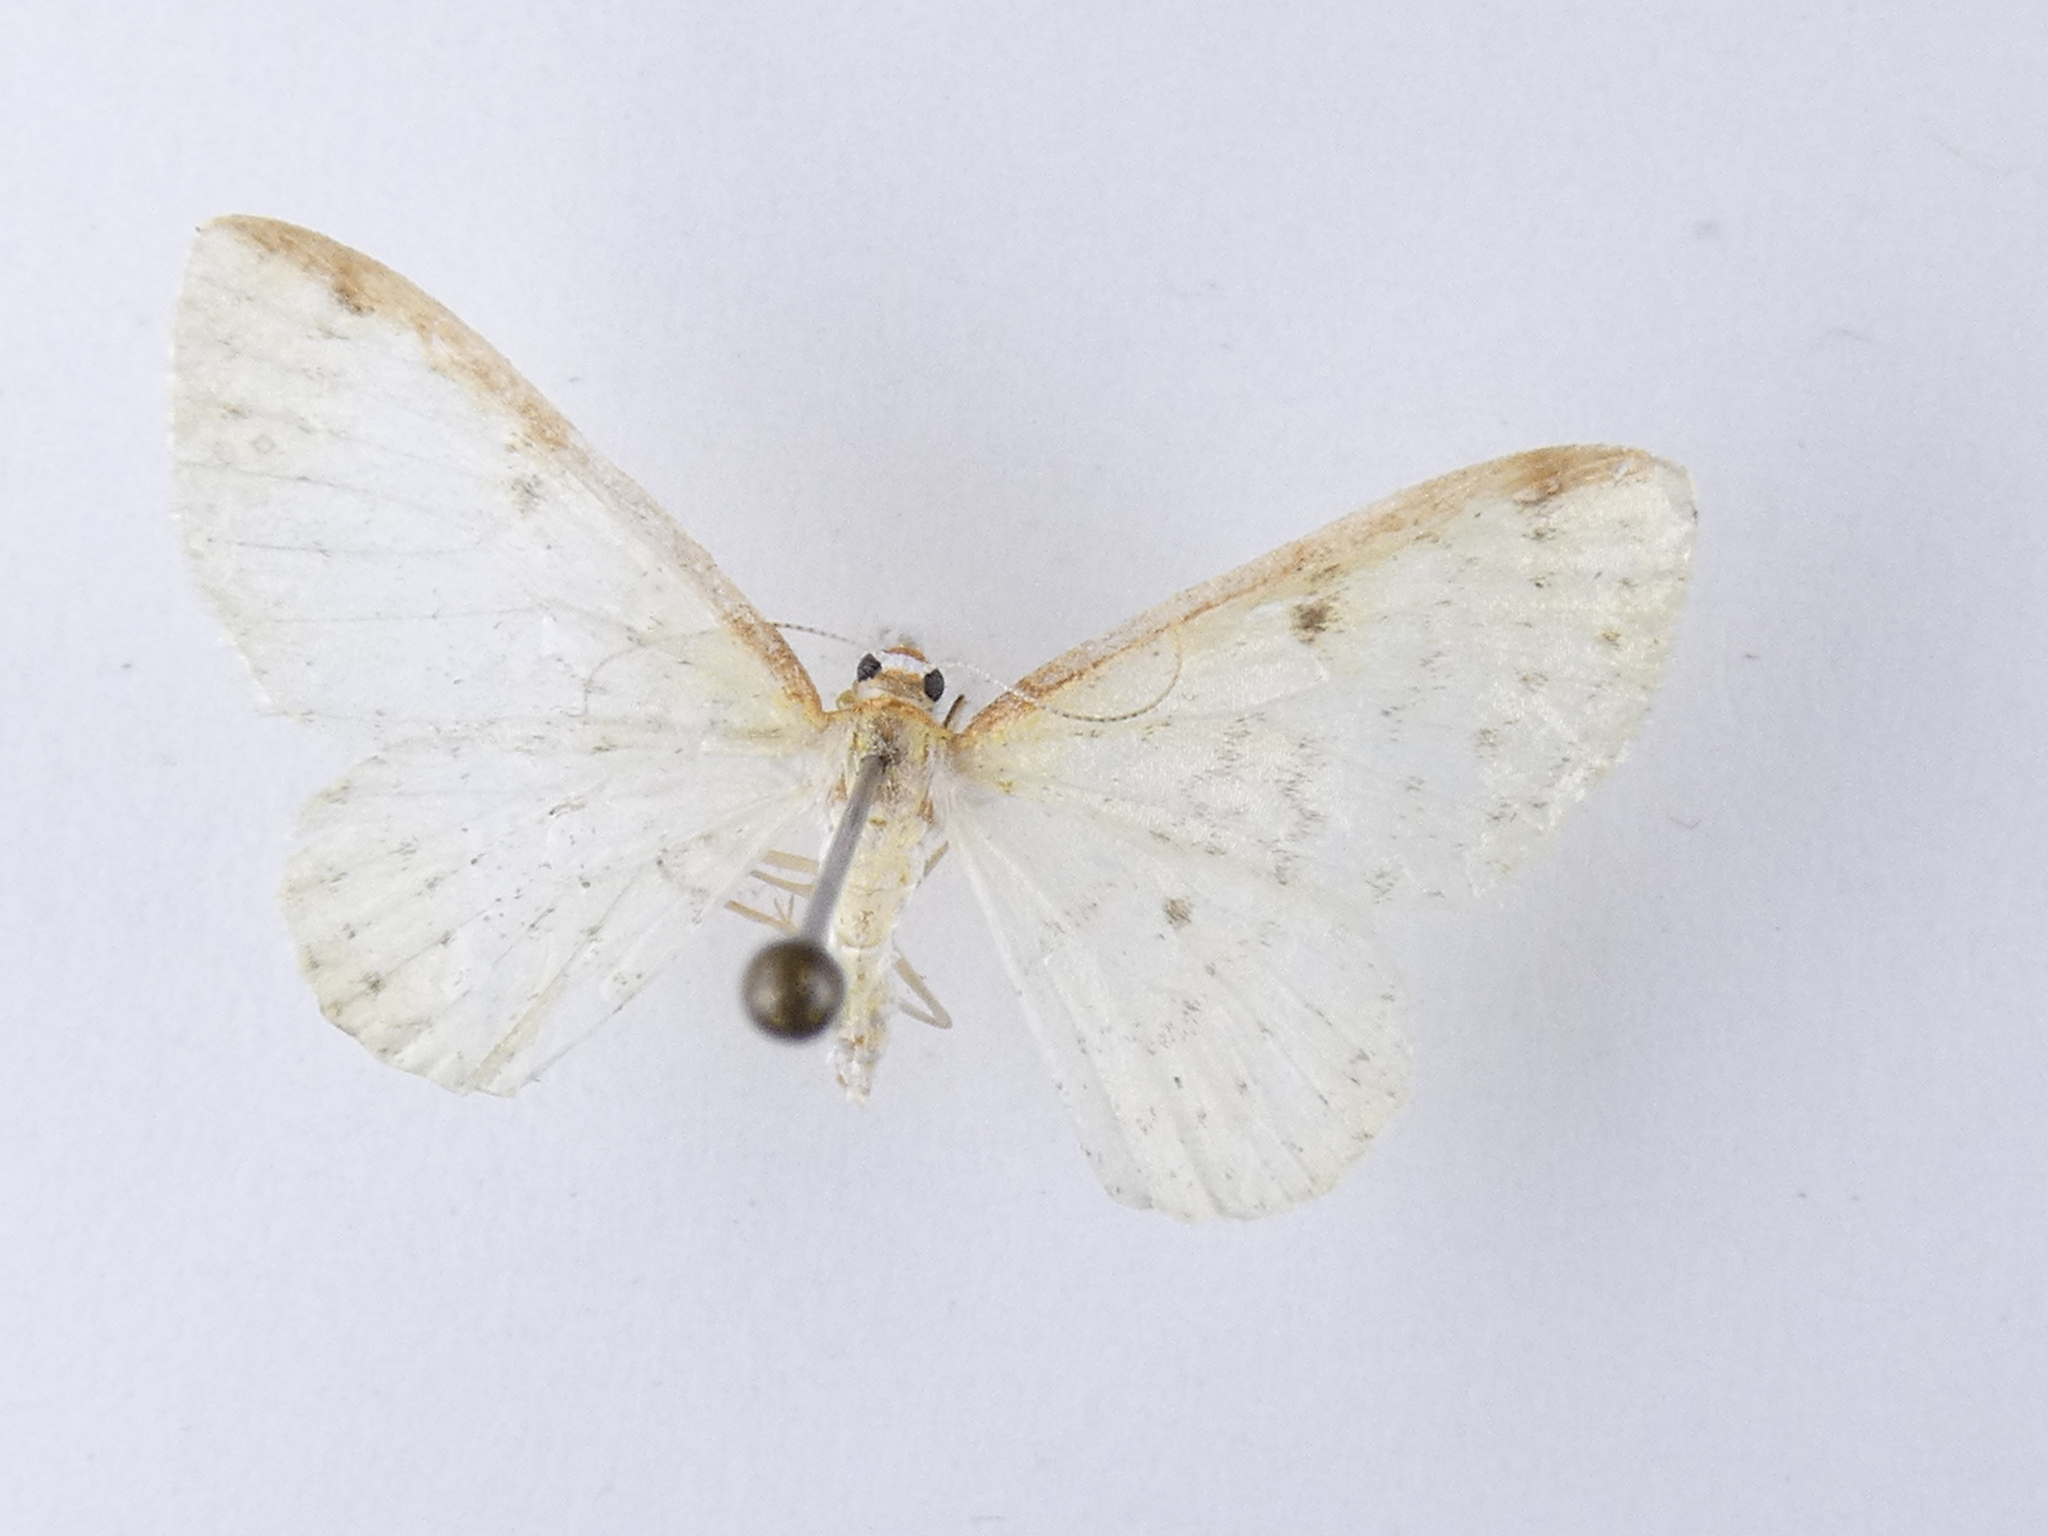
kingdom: Animalia
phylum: Arthropoda
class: Insecta
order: Lepidoptera
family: Geometridae
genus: Epiphryne
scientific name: Epiphryne undosata
